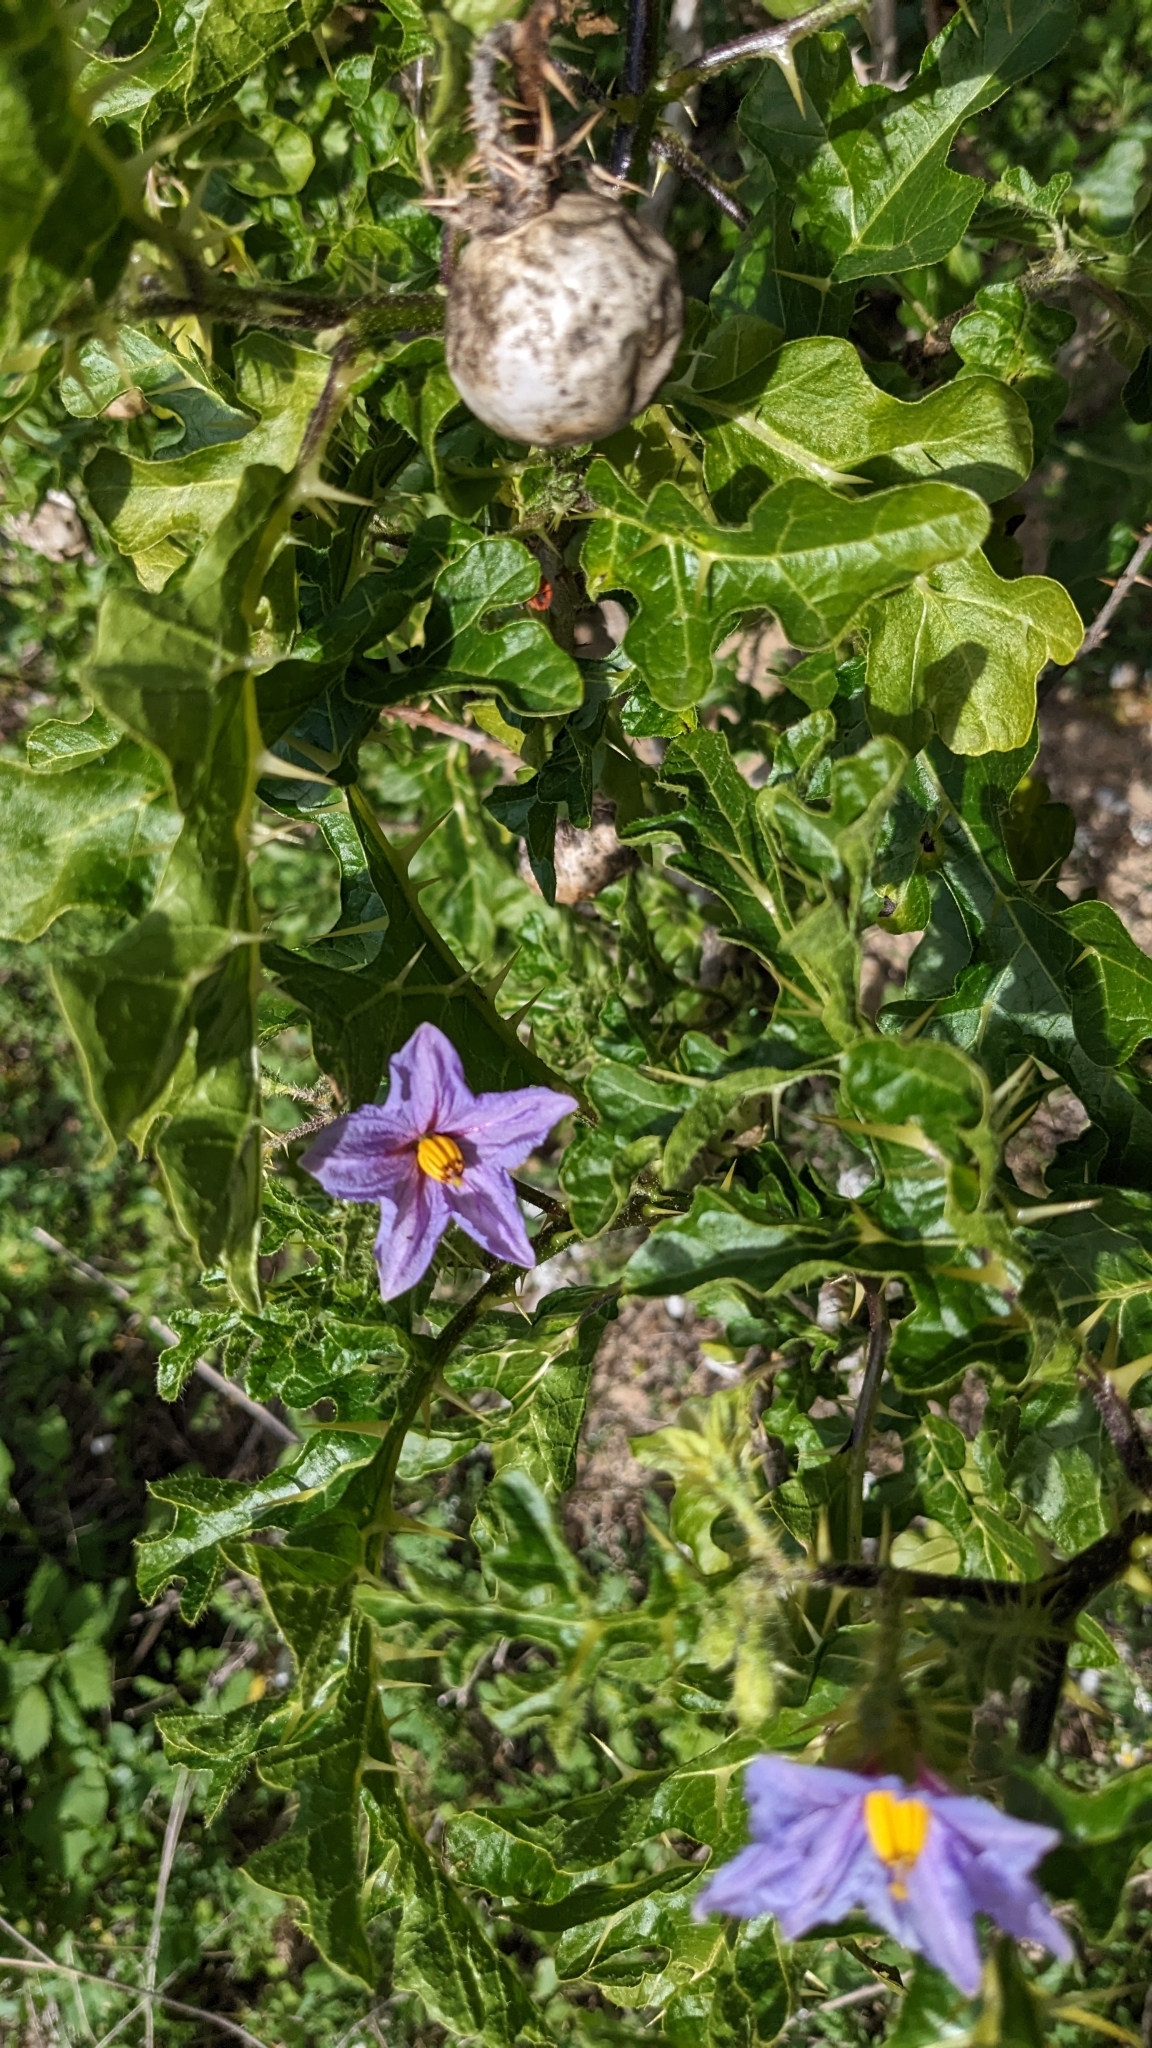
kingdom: Plantae
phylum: Tracheophyta
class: Magnoliopsida
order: Solanales
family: Solanaceae
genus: Solanum
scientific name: Solanum linnaeanum
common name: Nightshade
